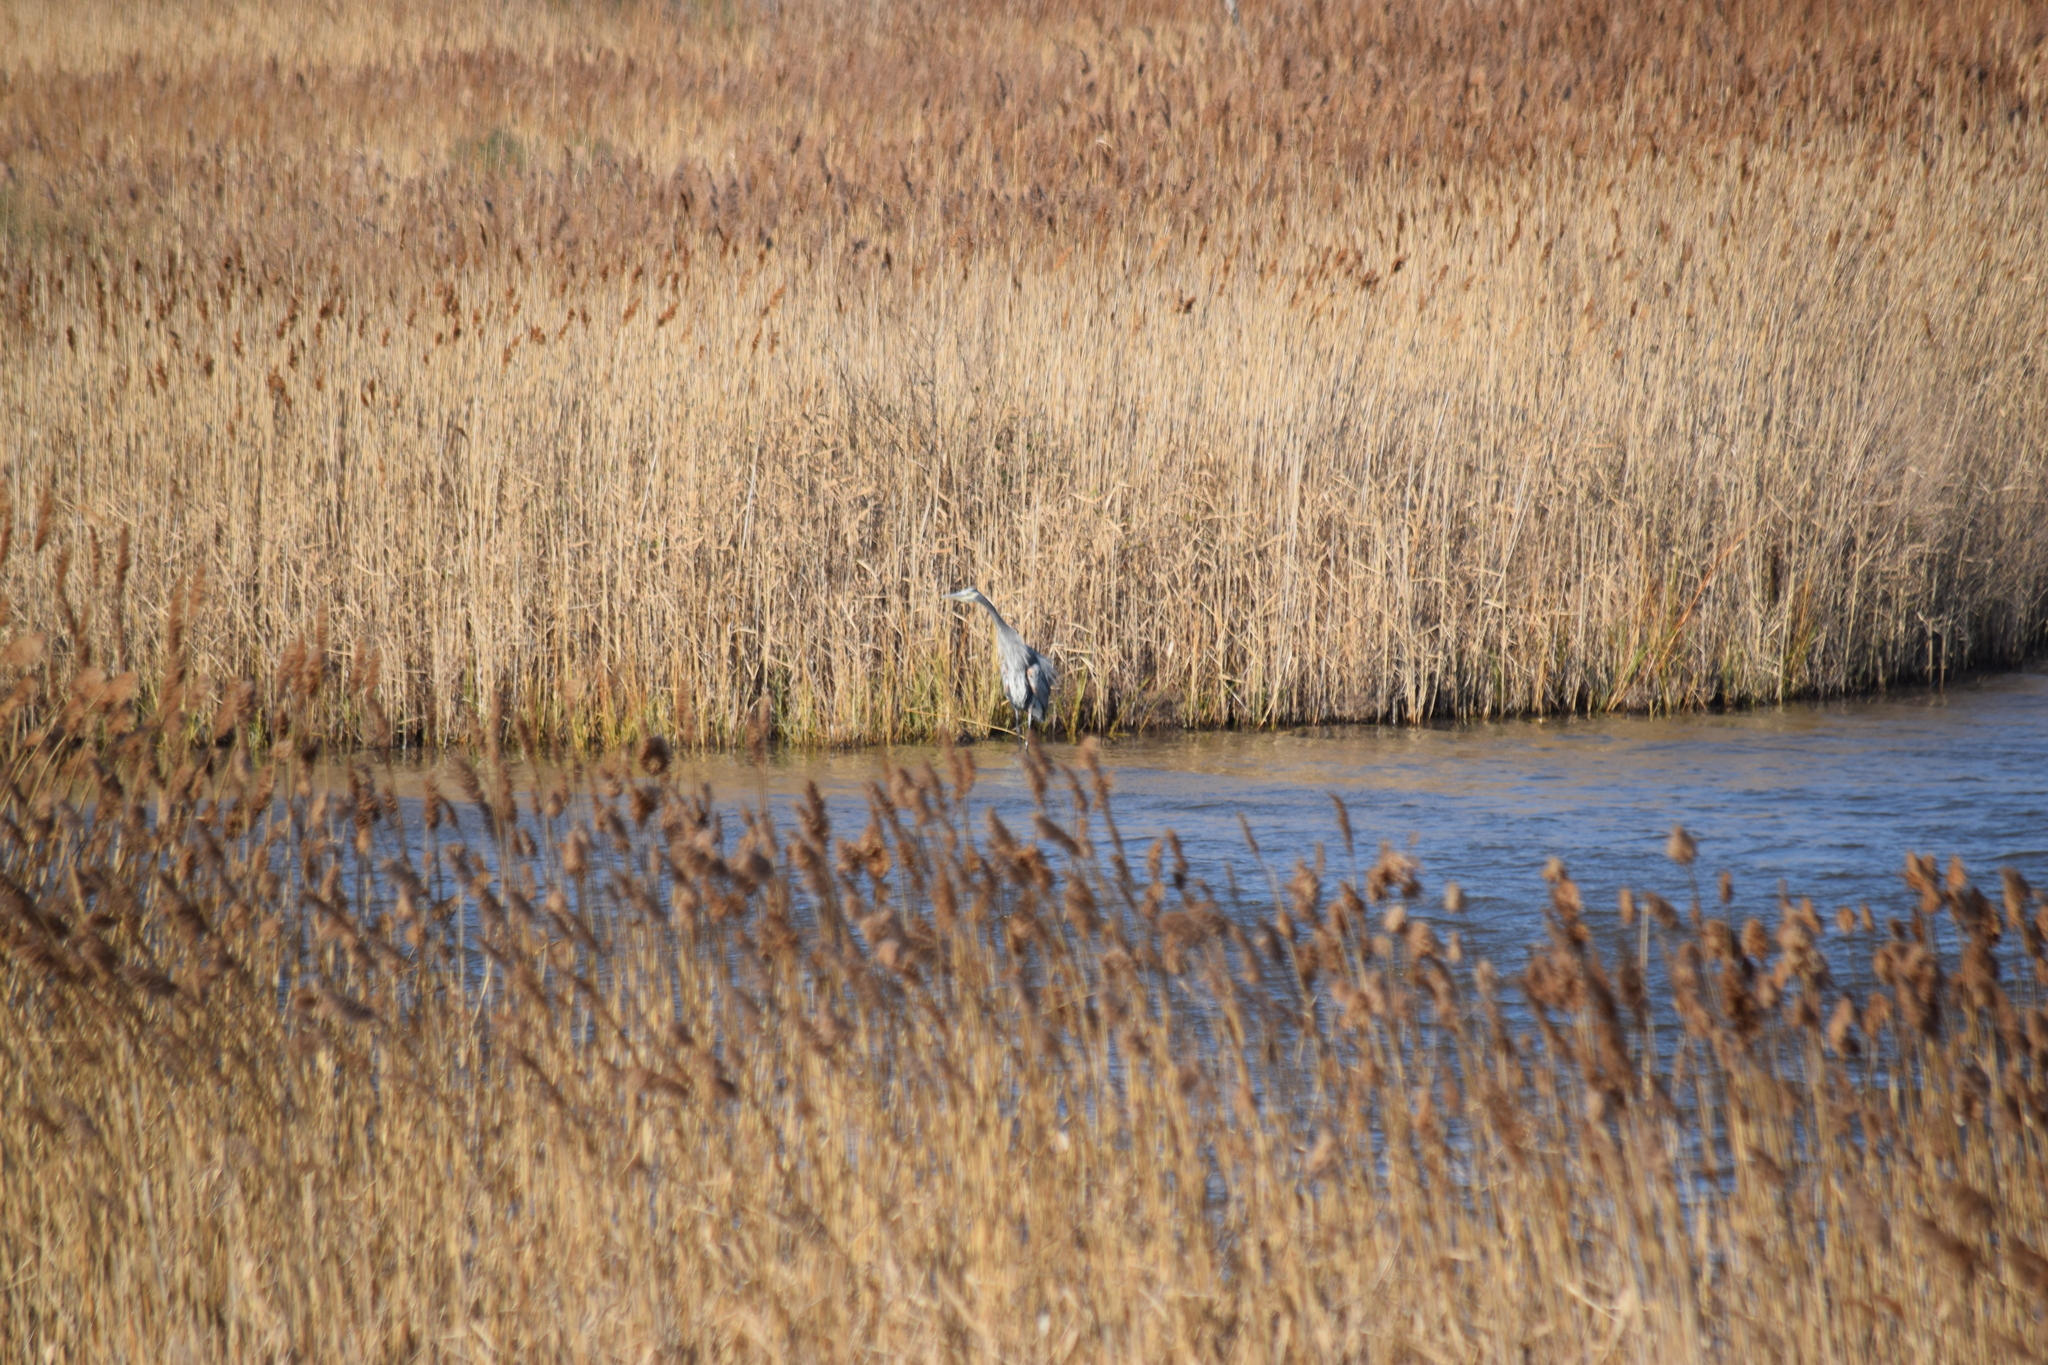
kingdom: Animalia
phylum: Chordata
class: Aves
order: Pelecaniformes
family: Ardeidae
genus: Ardea
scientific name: Ardea herodias
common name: Great blue heron
